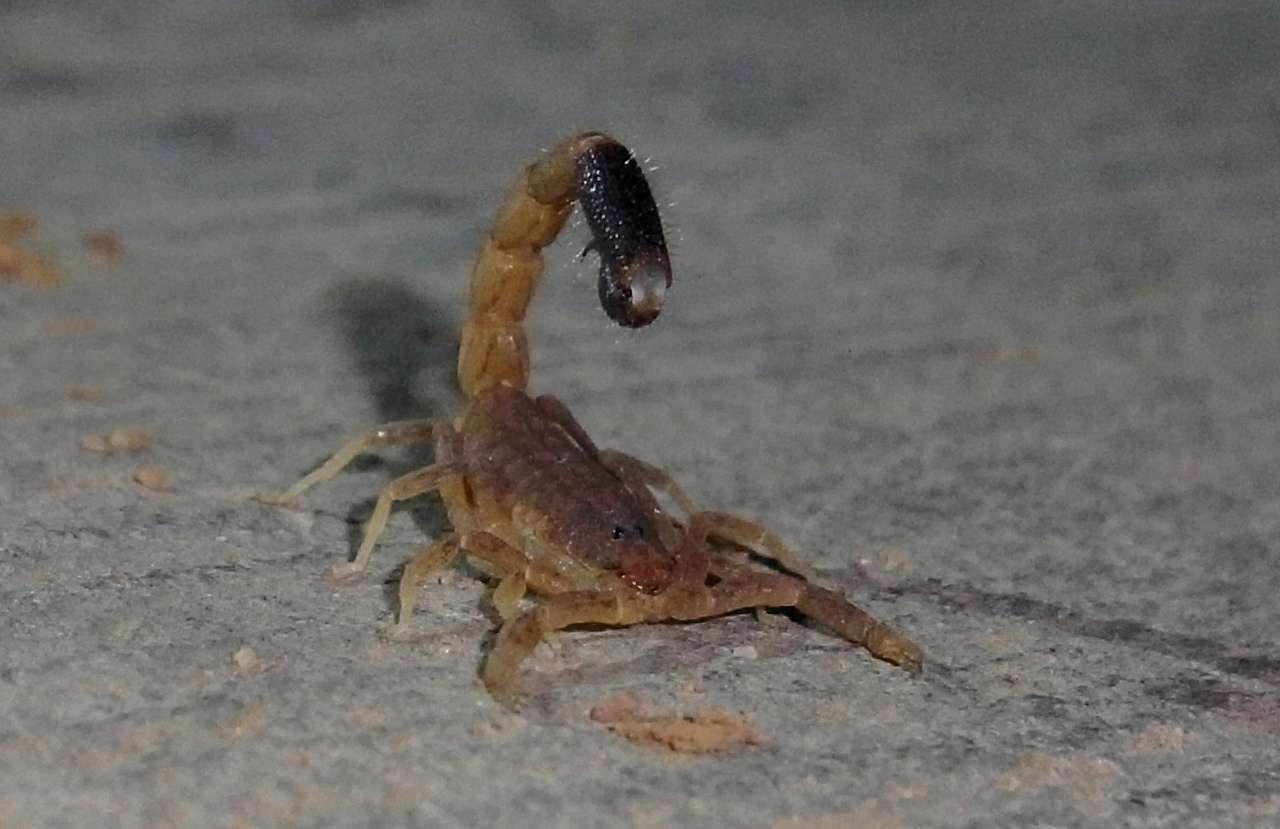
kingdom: Animalia
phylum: Arthropoda
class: Arachnida
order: Scorpiones
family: Buthidae
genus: Isometroides
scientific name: Isometroides angusticaudus
